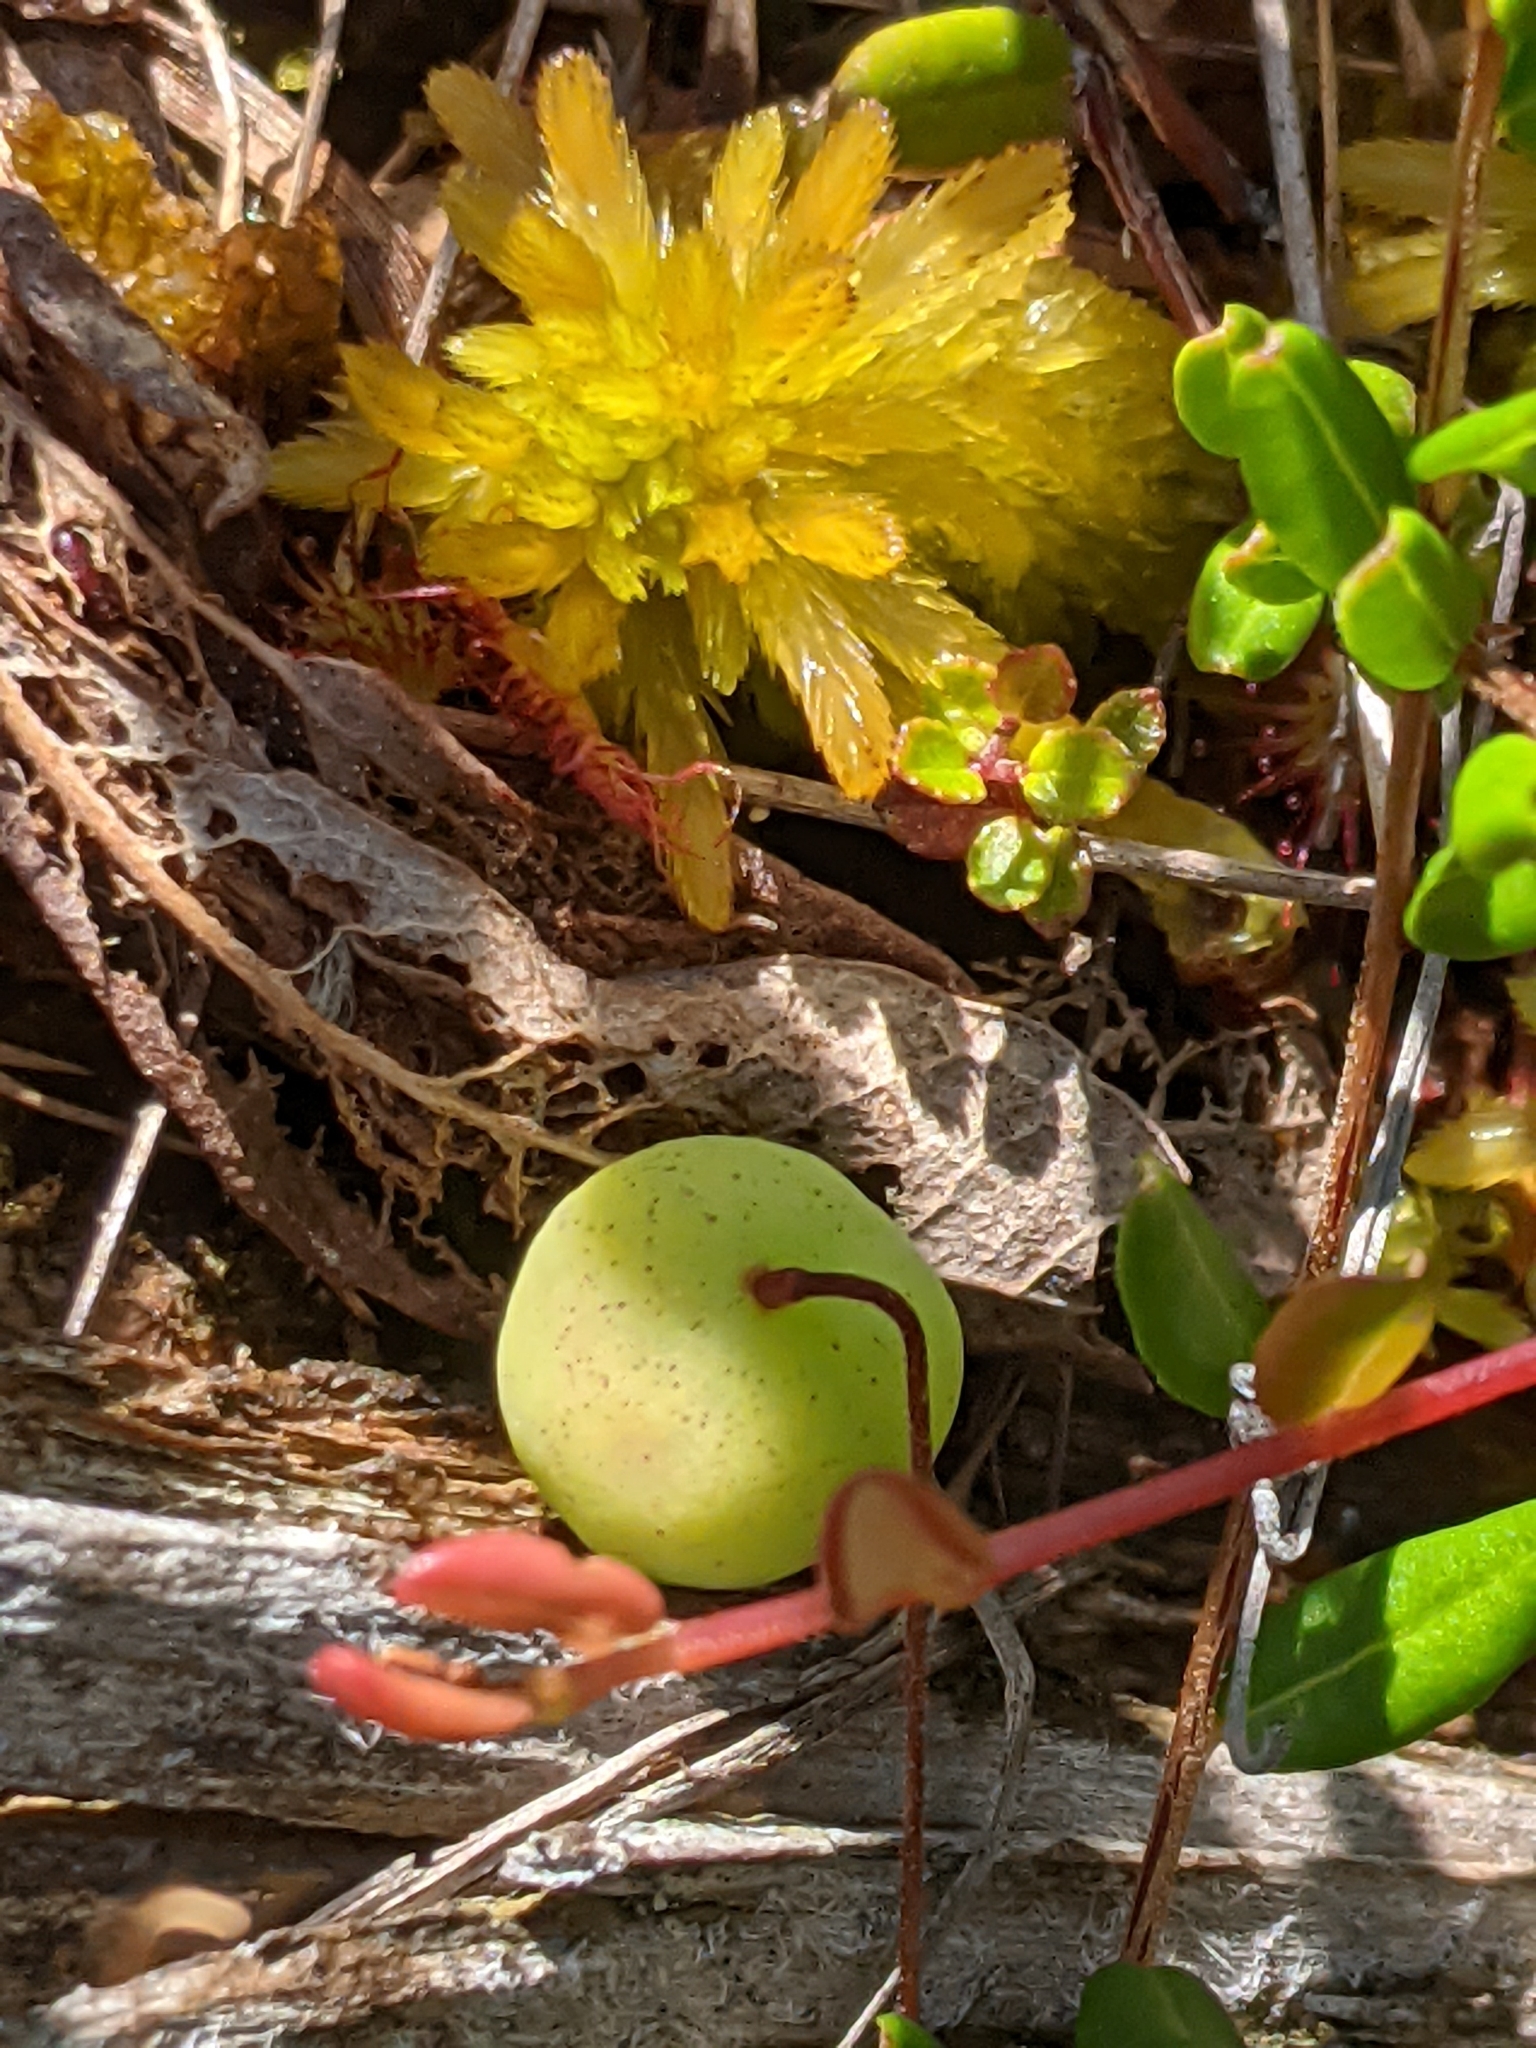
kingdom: Plantae
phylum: Tracheophyta
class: Magnoliopsida
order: Ericales
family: Ericaceae
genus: Vaccinium
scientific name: Vaccinium macrocarpon
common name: American cranberry
